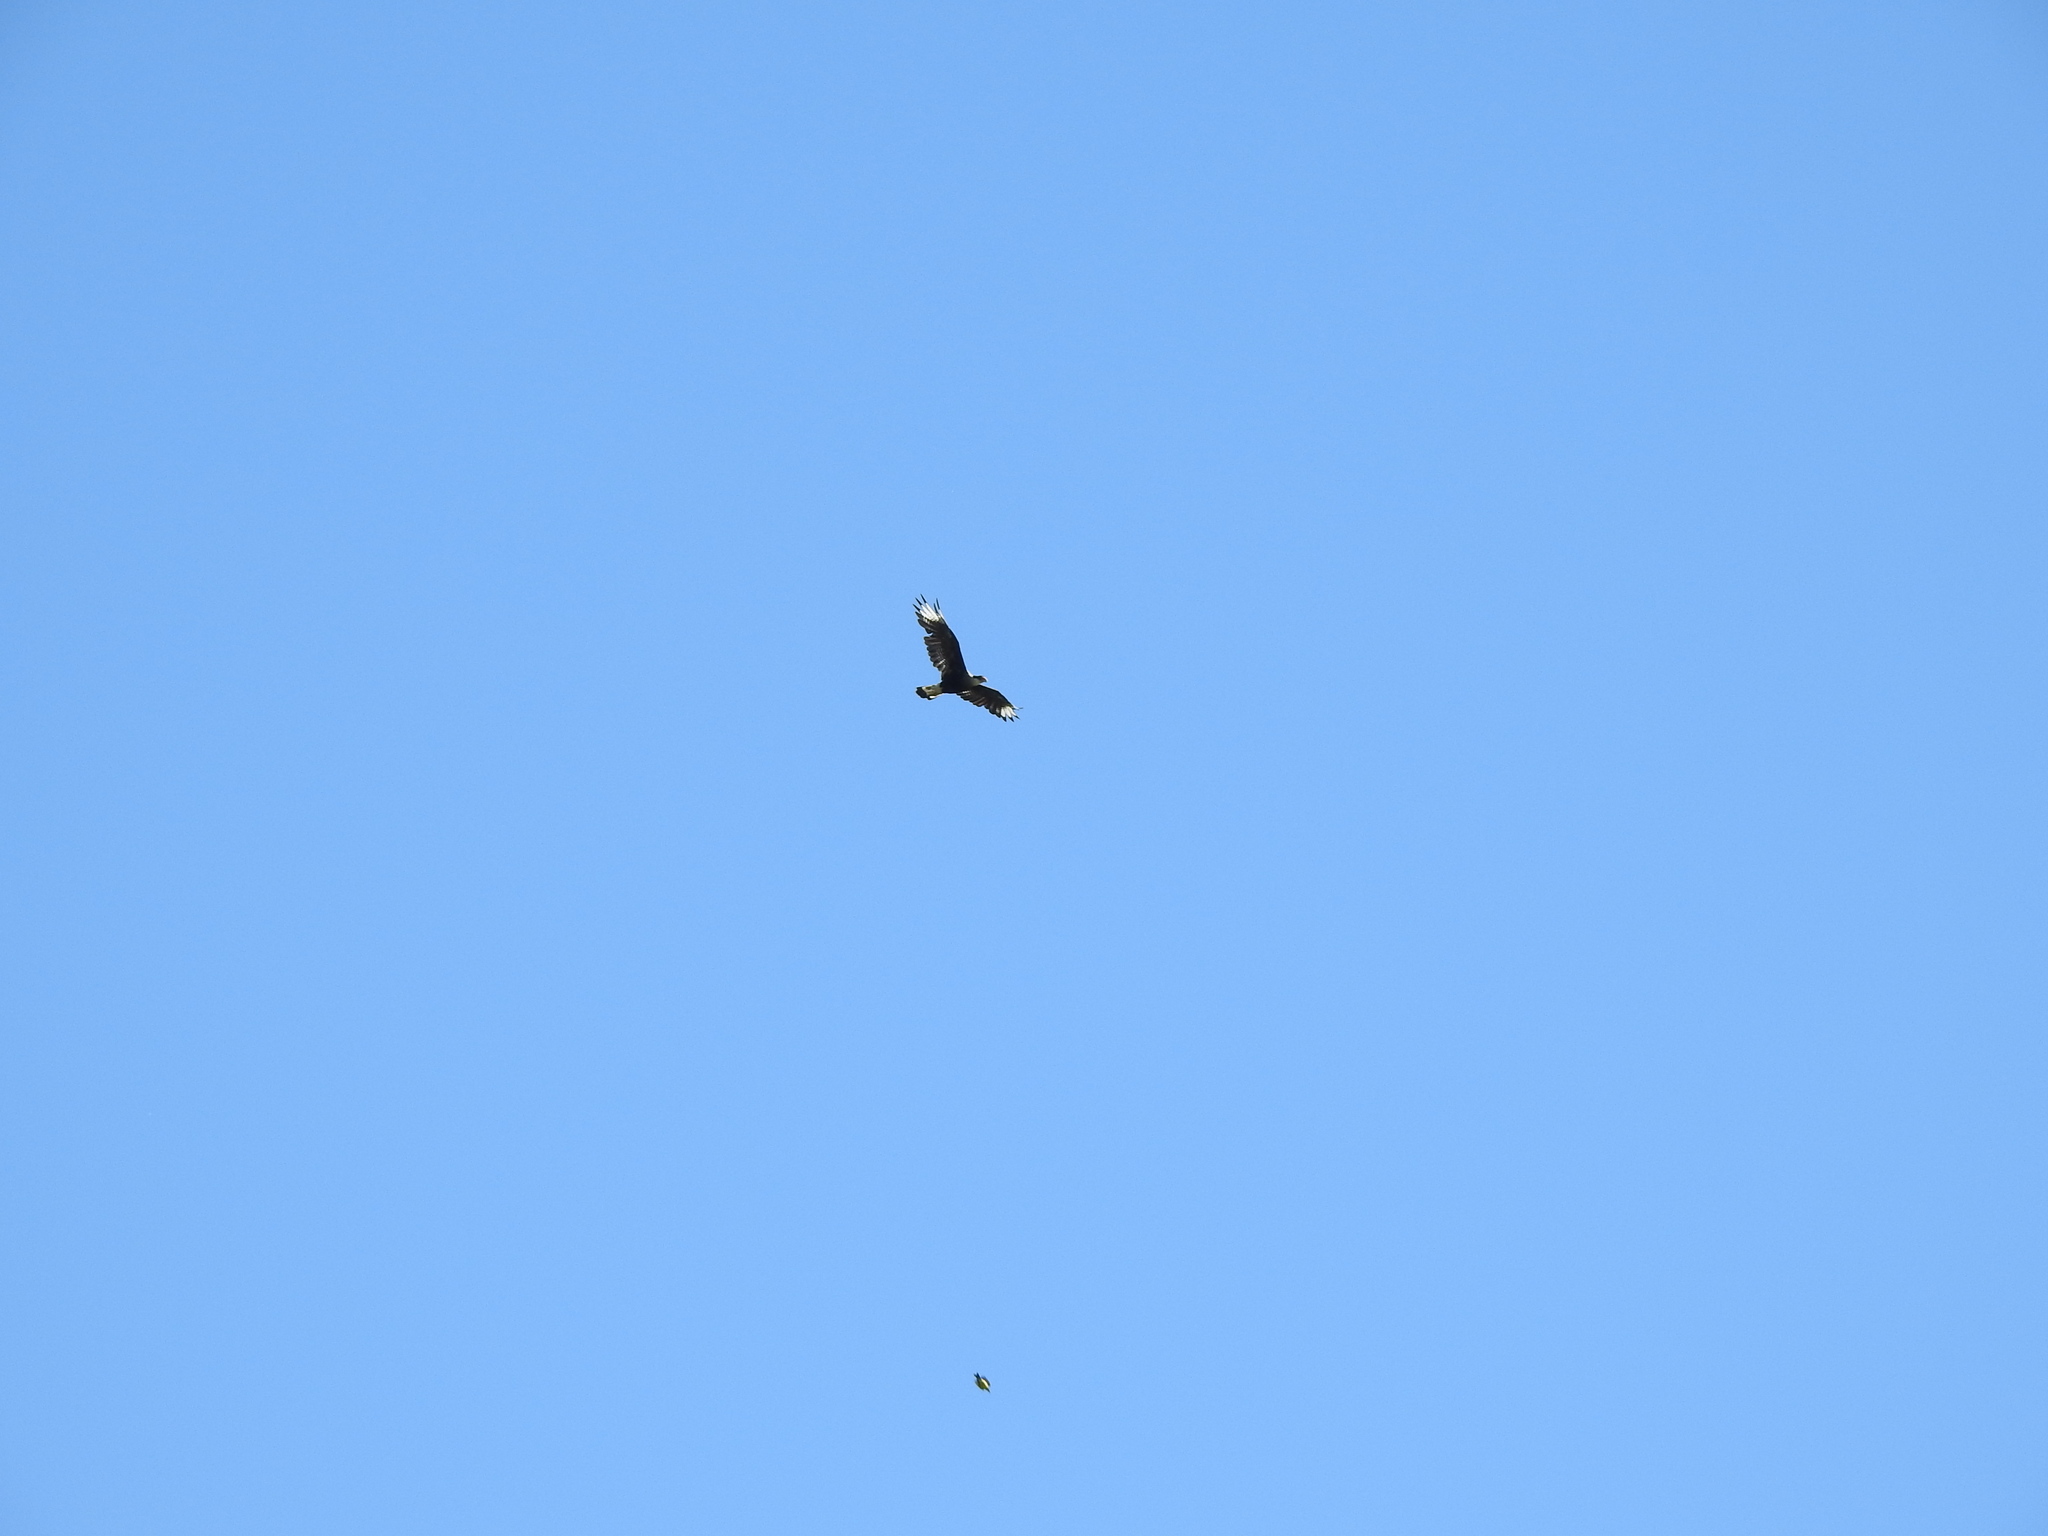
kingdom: Animalia
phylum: Chordata
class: Aves
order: Falconiformes
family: Falconidae
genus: Caracara
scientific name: Caracara plancus
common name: Southern caracara
